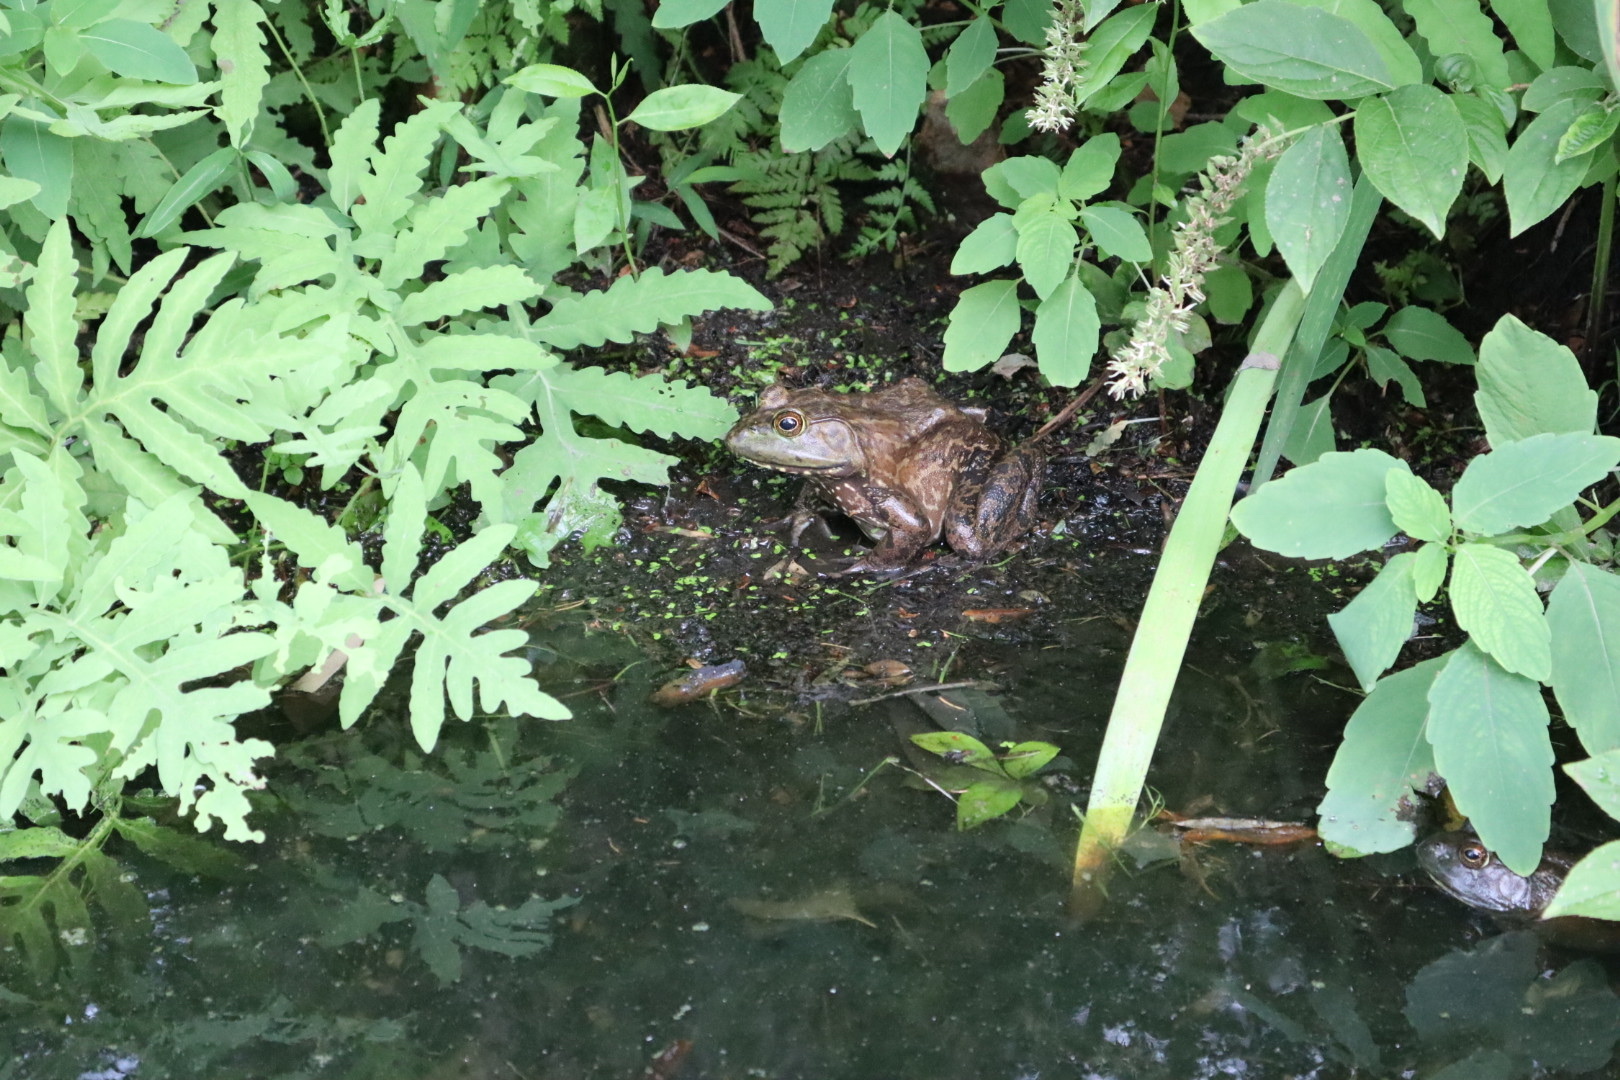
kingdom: Animalia
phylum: Chordata
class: Amphibia
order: Anura
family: Ranidae
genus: Lithobates
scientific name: Lithobates catesbeianus
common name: American bullfrog
